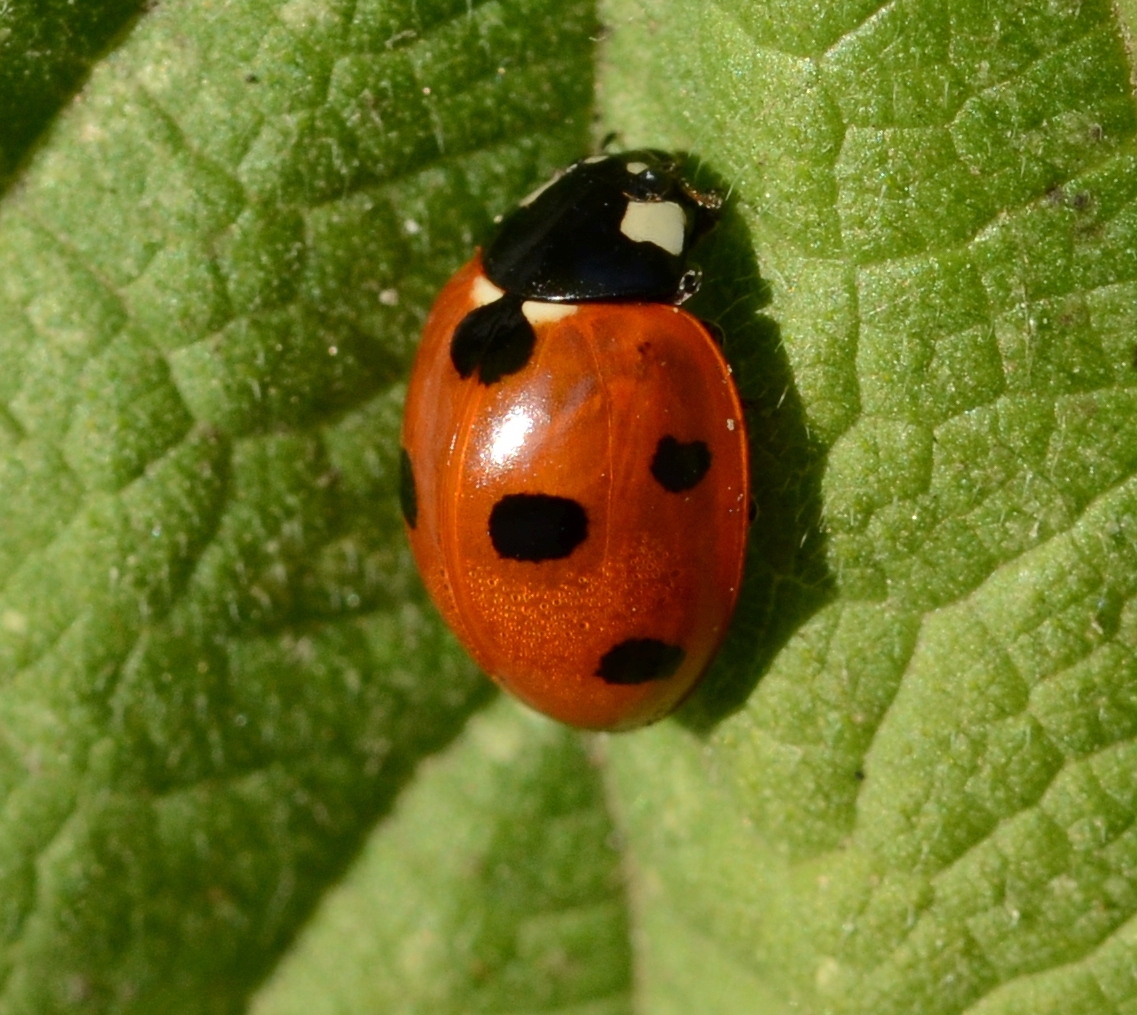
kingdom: Animalia
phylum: Arthropoda
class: Insecta
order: Coleoptera
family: Coccinellidae
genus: Coccinella
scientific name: Coccinella septempunctata
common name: Sevenspotted lady beetle
